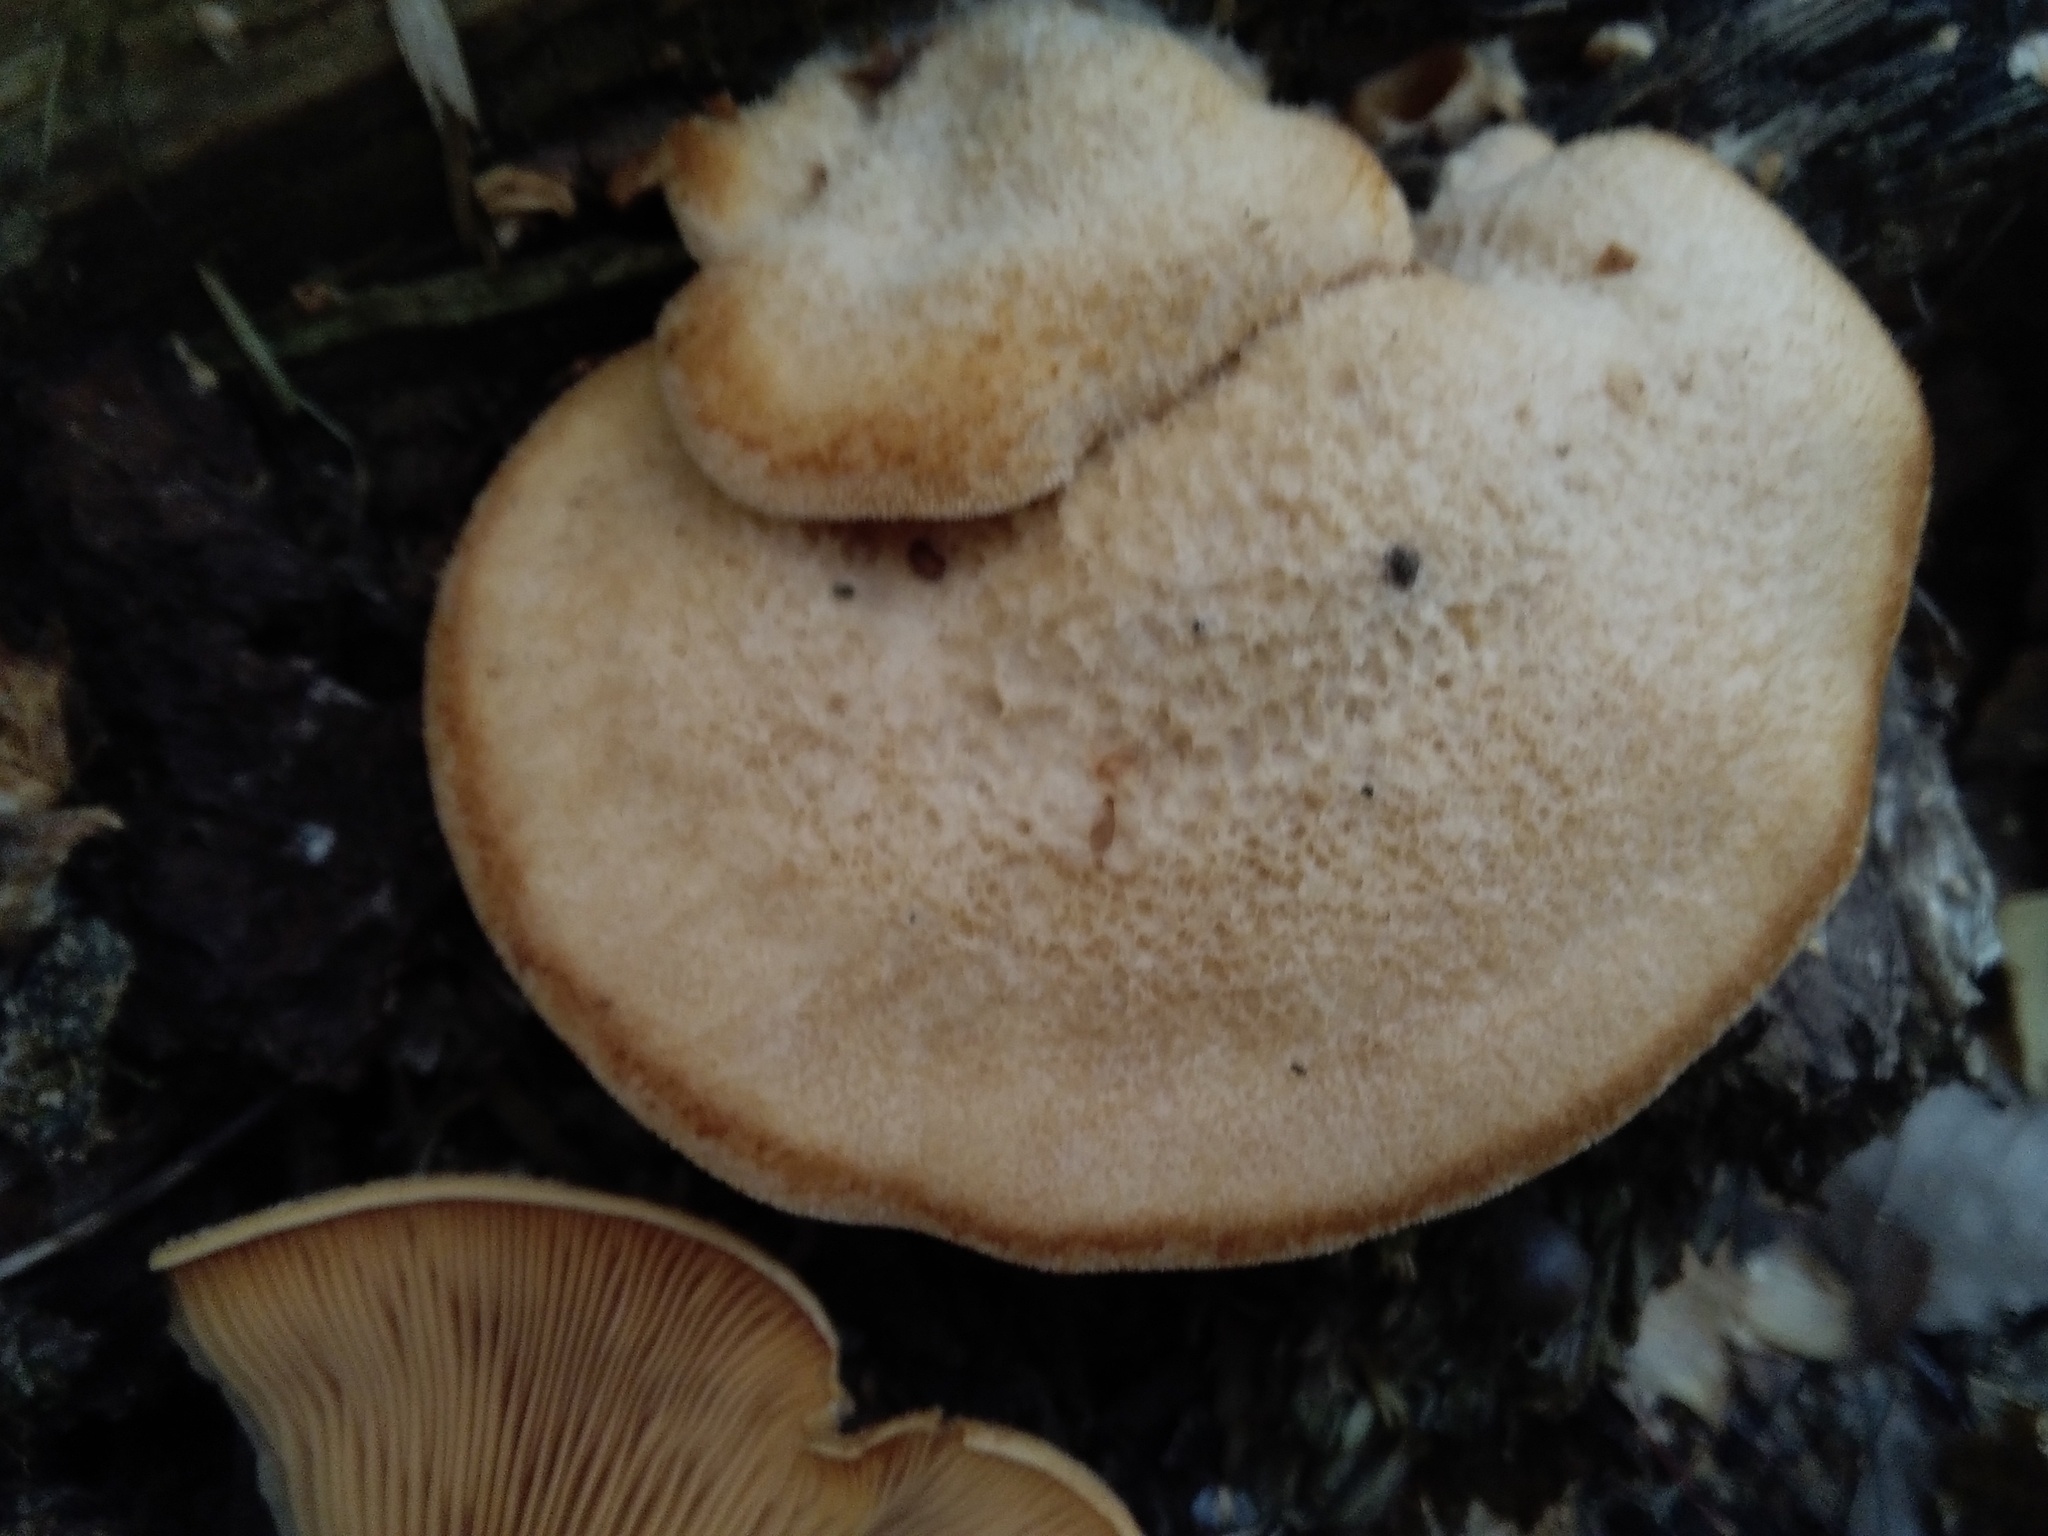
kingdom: Fungi
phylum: Basidiomycota
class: Agaricomycetes
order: Agaricales
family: Phyllotopsidaceae
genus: Phyllotopsis
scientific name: Phyllotopsis nidulans
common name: Orange mock oyster
